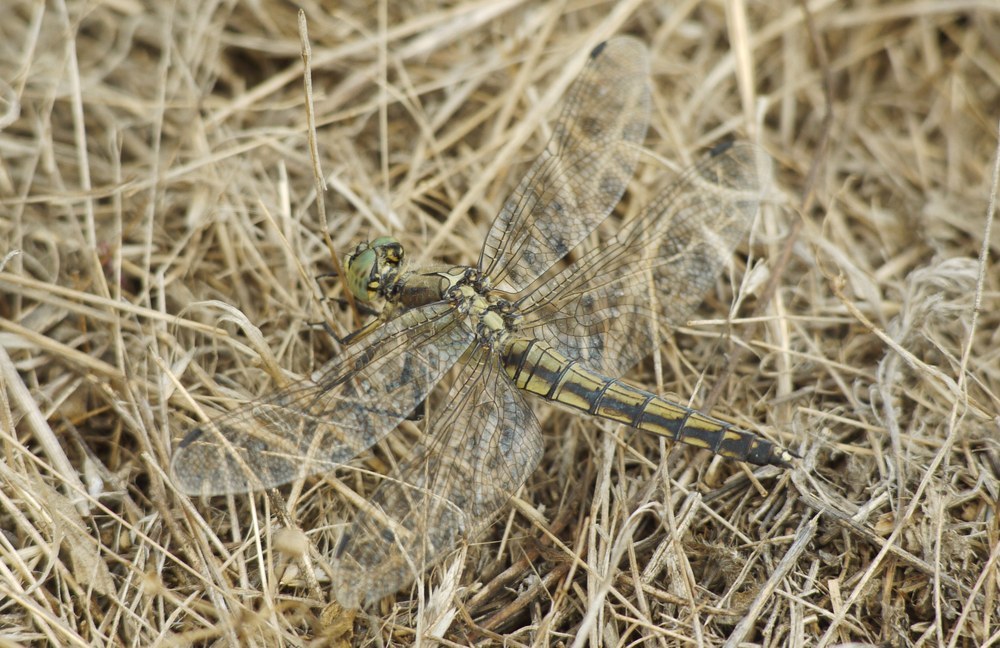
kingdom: Animalia
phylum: Arthropoda
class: Insecta
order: Odonata
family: Libellulidae
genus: Orthetrum
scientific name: Orthetrum cancellatum
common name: Black-tailed skimmer
